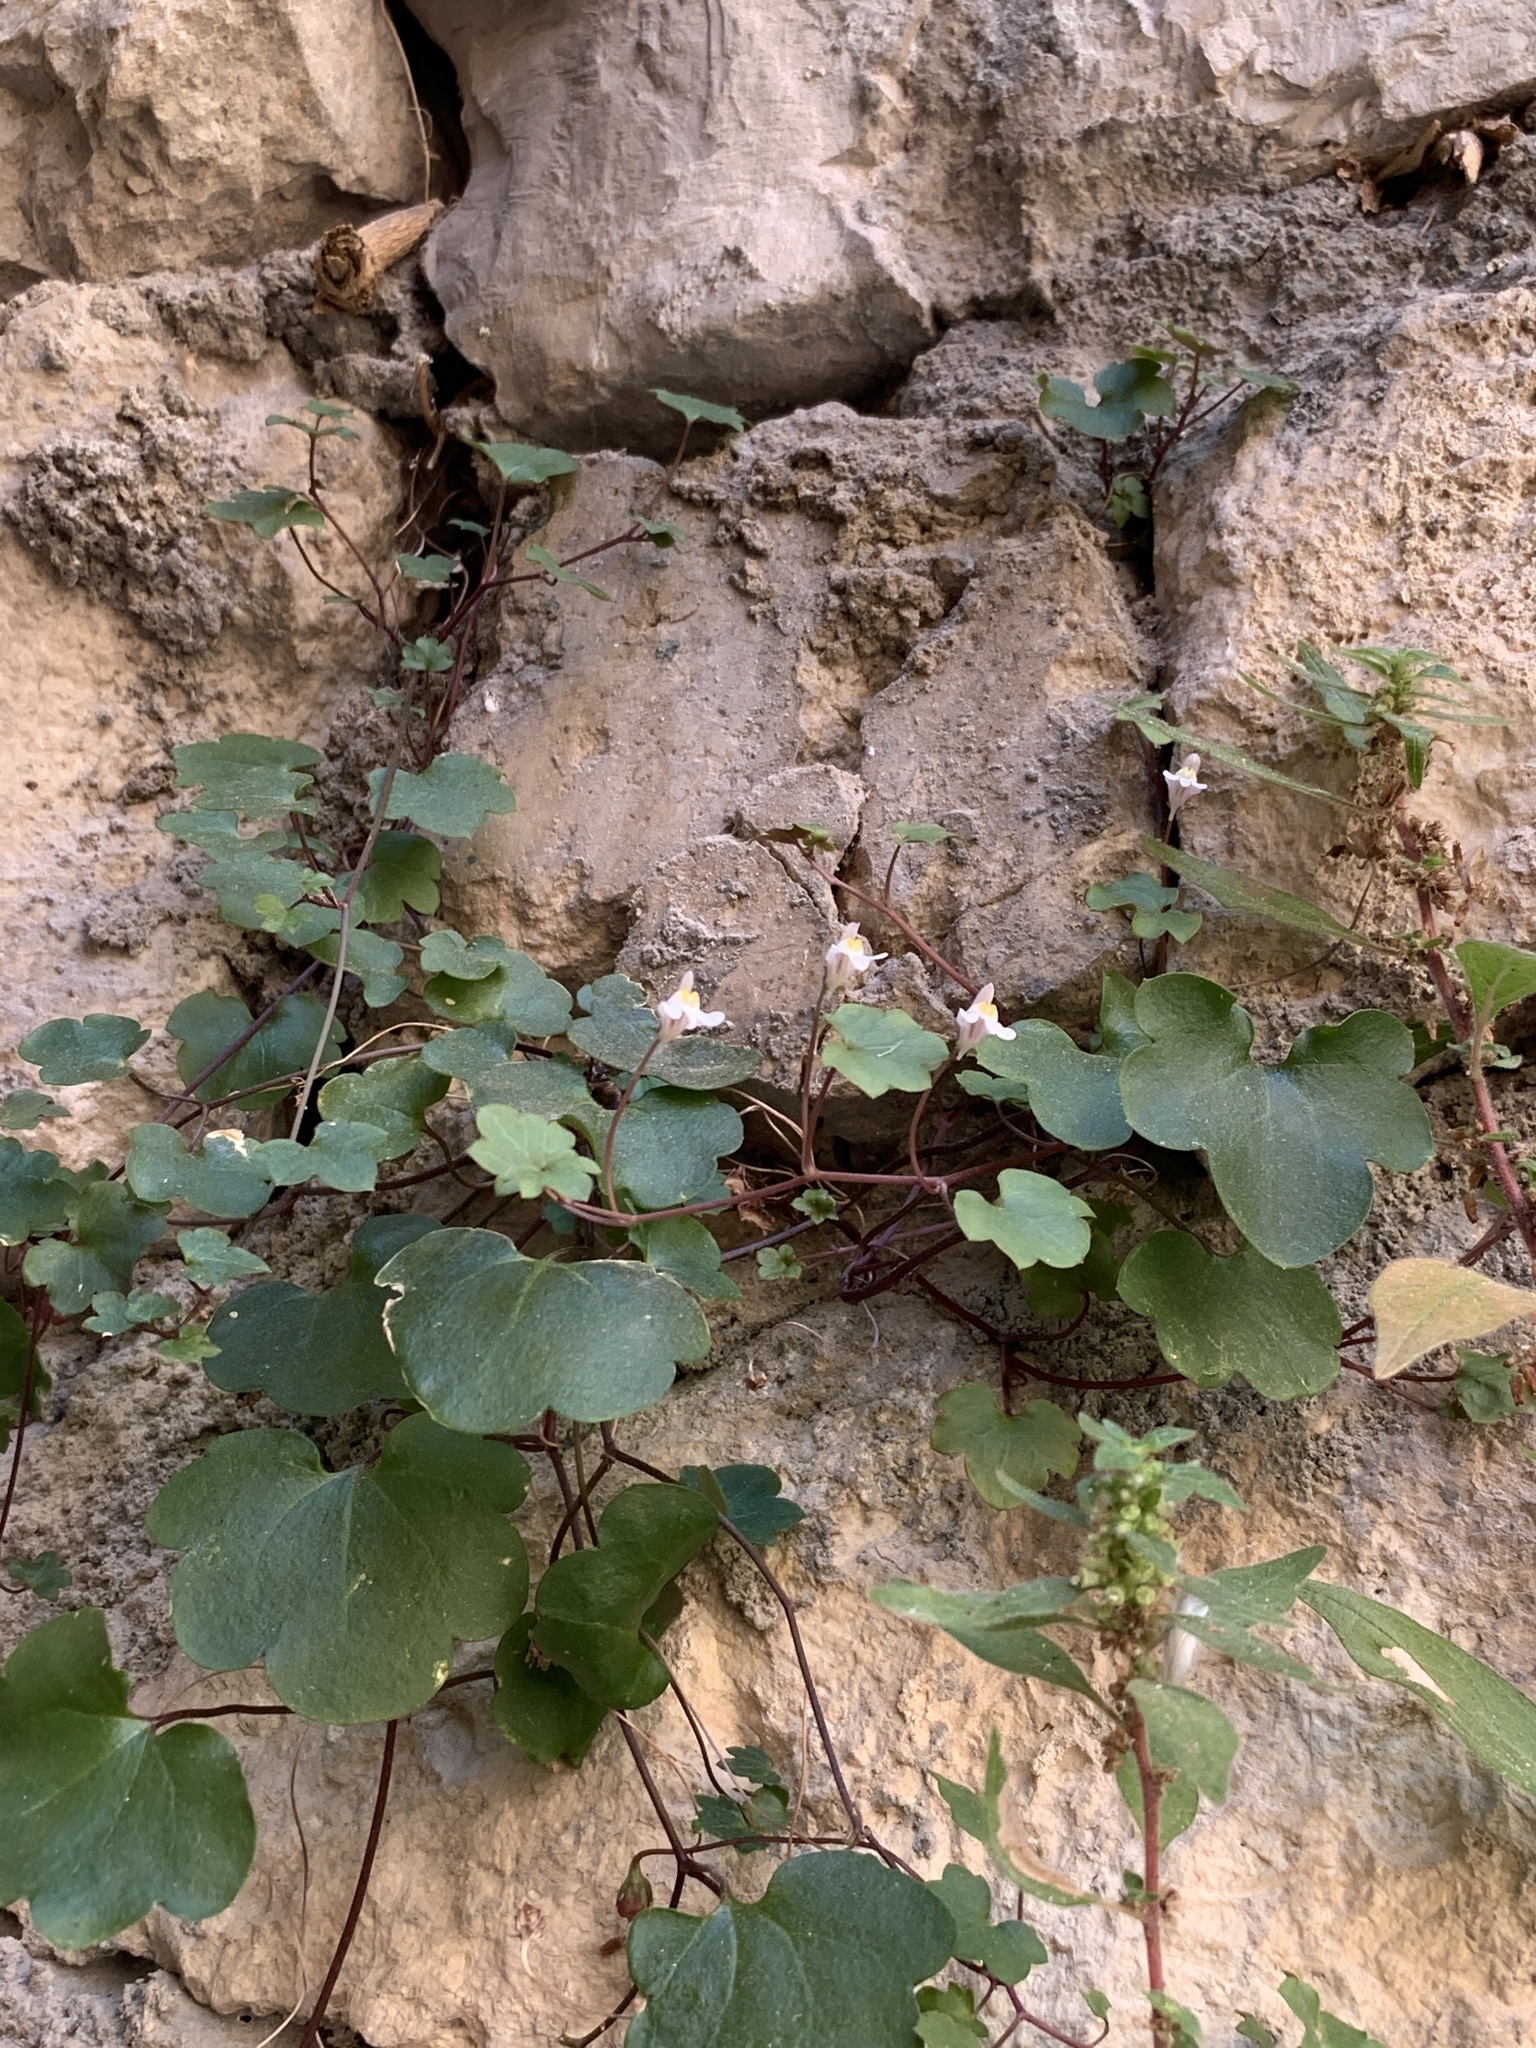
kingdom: Plantae
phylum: Tracheophyta
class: Magnoliopsida
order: Lamiales
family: Plantaginaceae
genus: Cymbalaria
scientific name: Cymbalaria muralis
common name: Ivy-leaved toadflax
